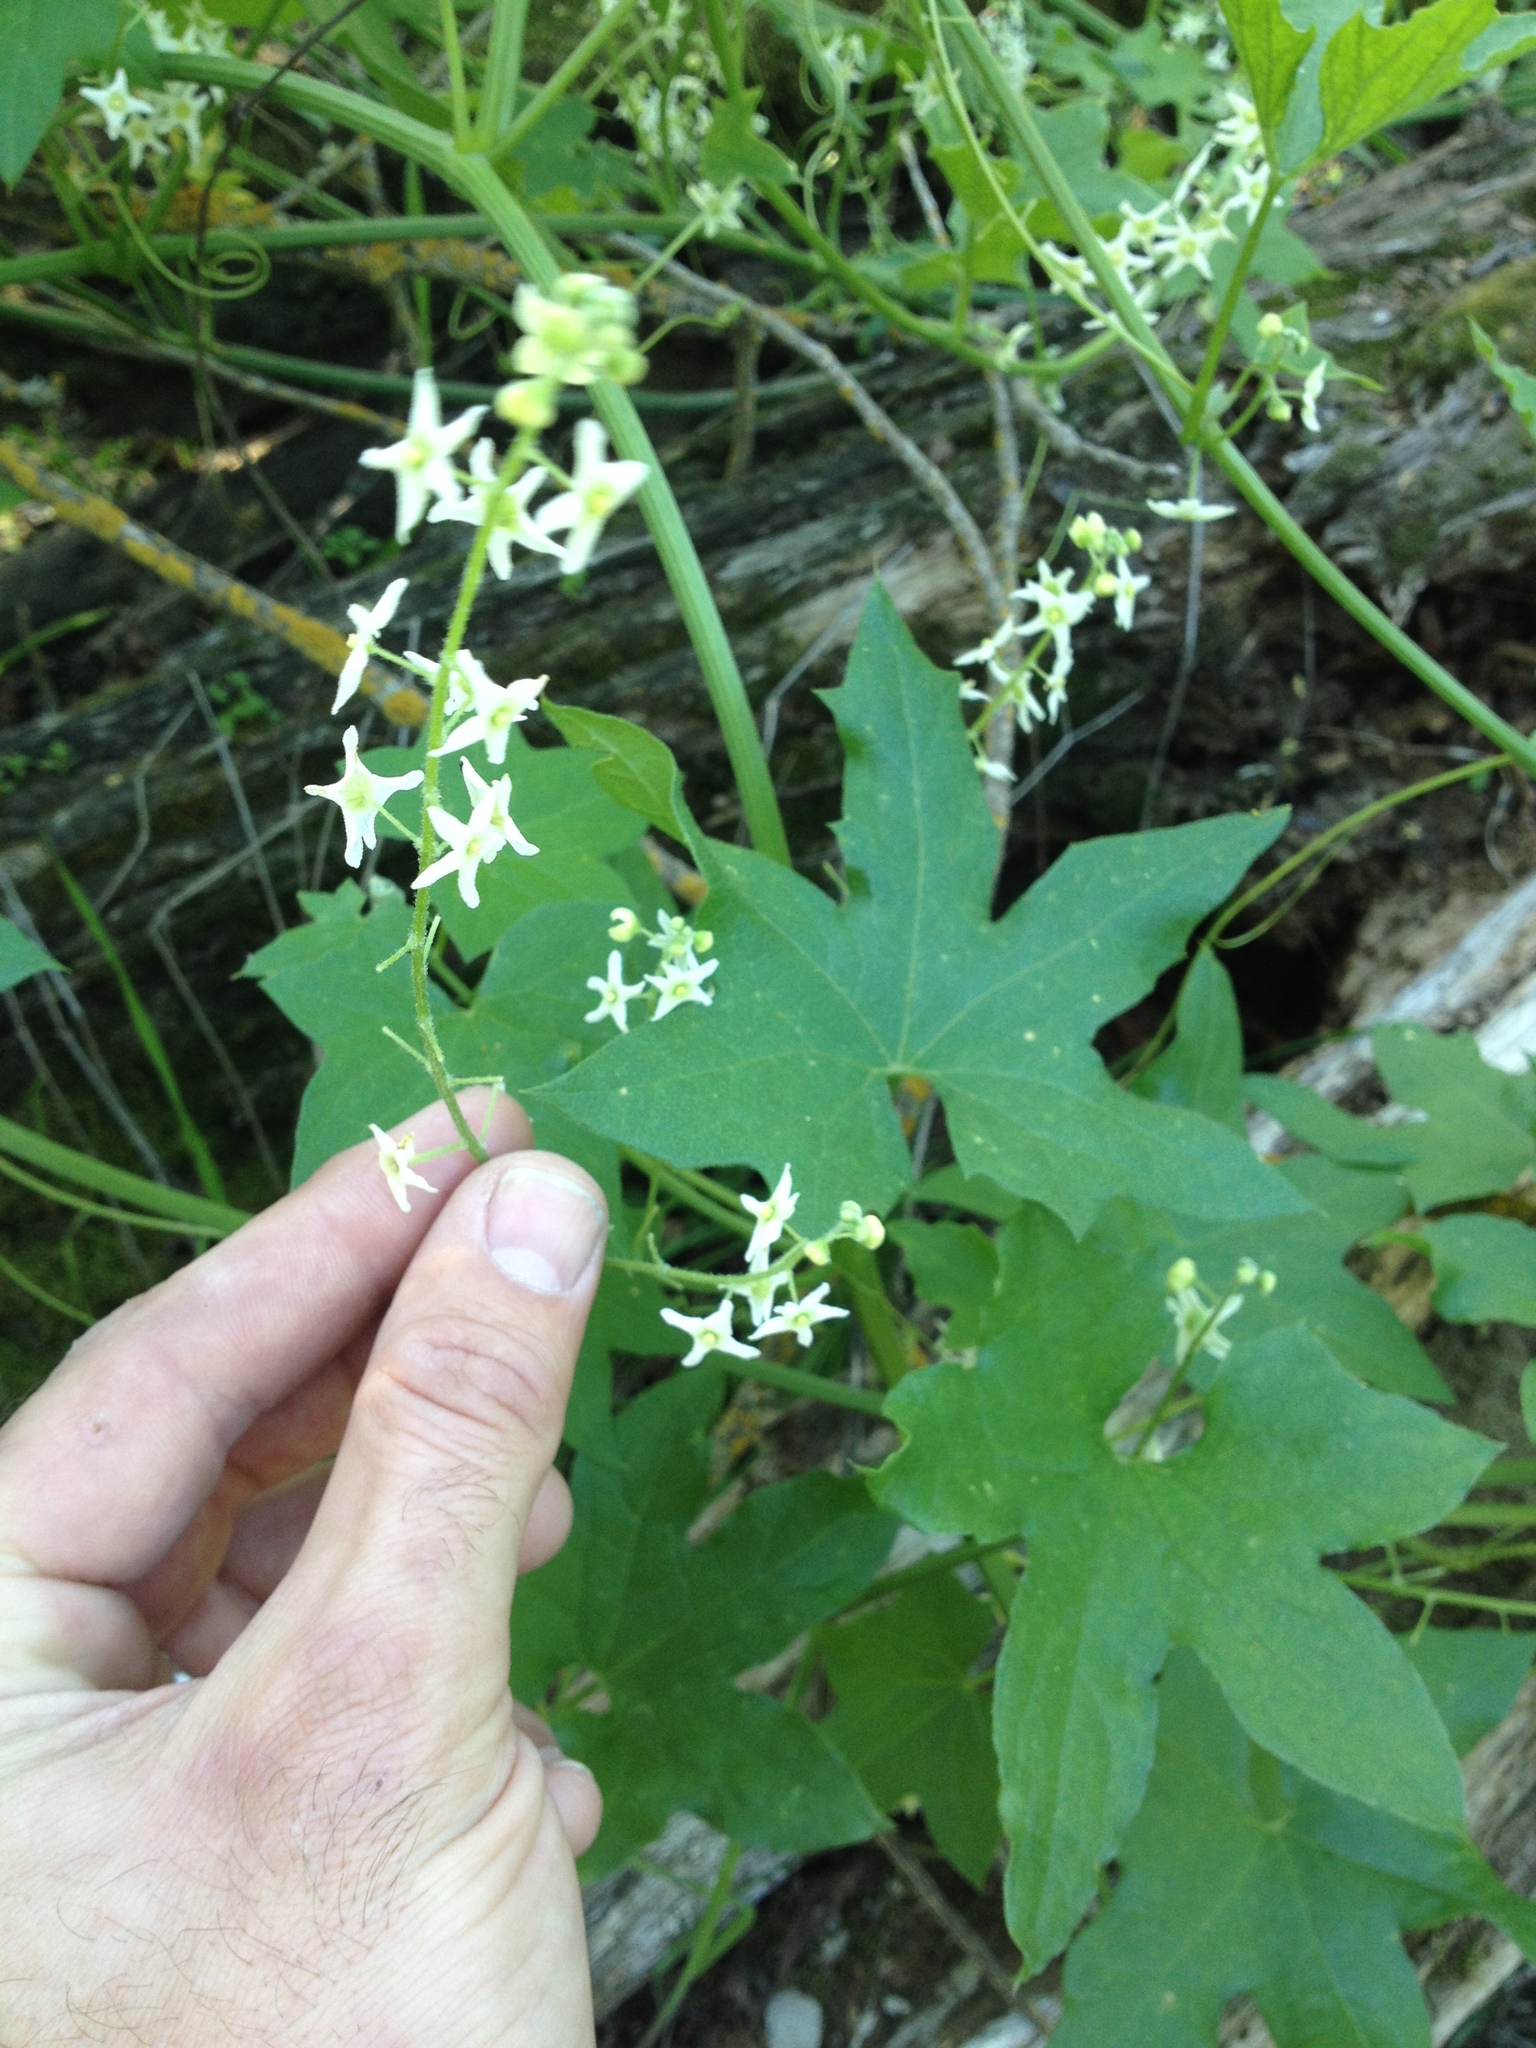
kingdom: Plantae
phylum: Tracheophyta
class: Magnoliopsida
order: Cucurbitales
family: Cucurbitaceae
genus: Marah
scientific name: Marah fabacea
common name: California manroot
